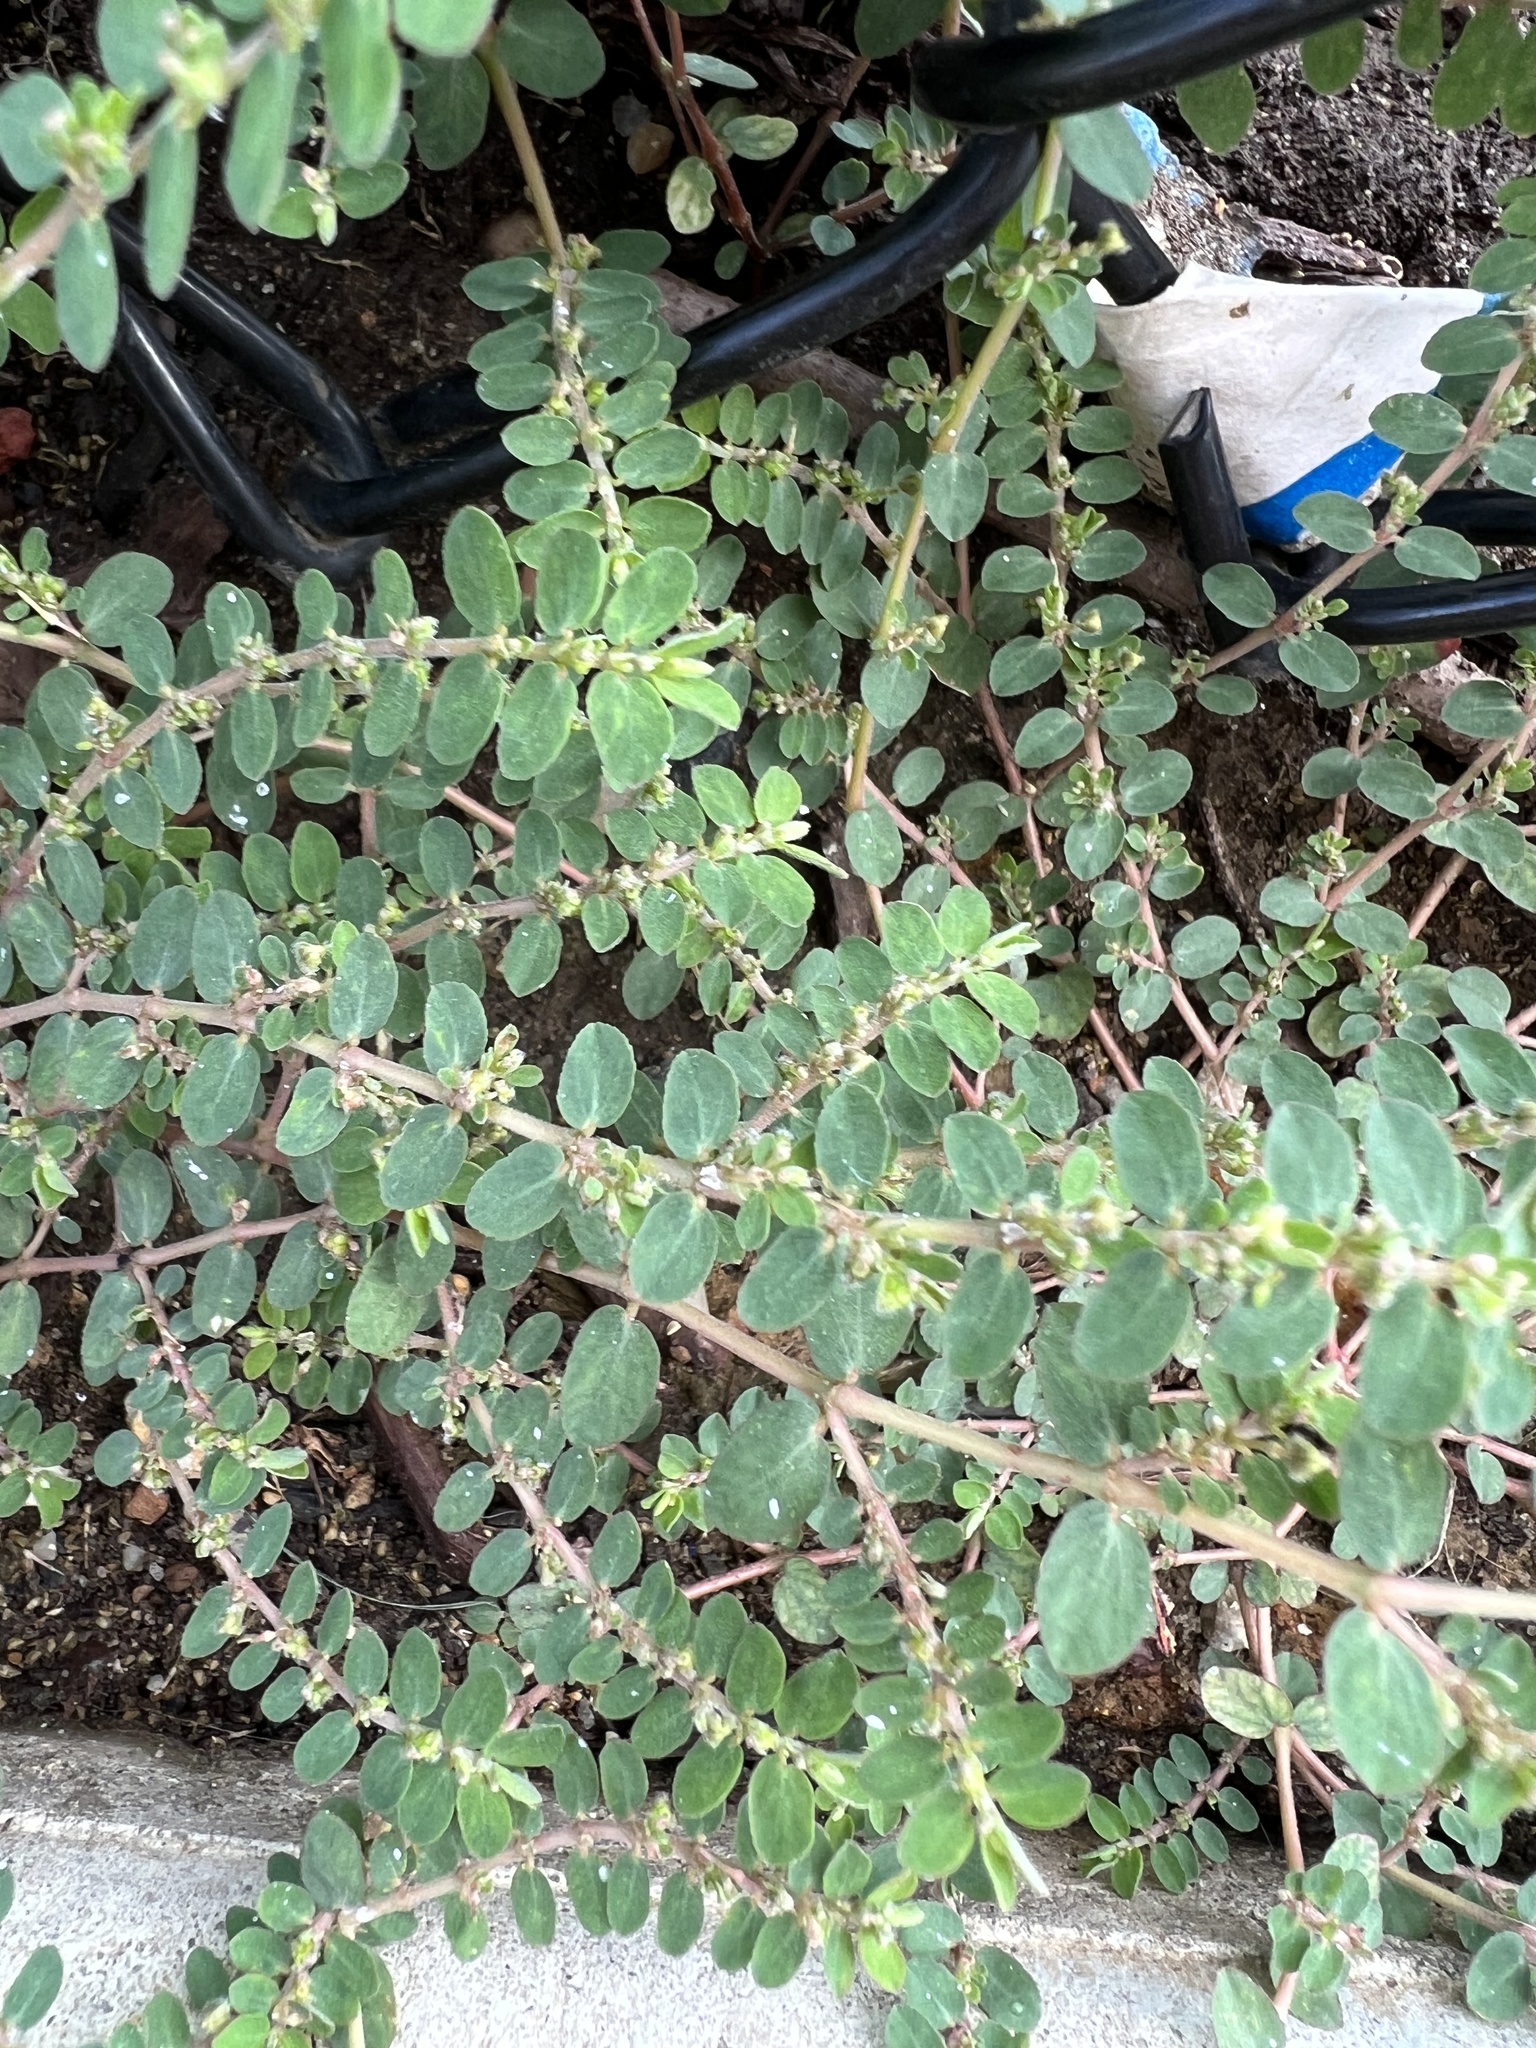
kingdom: Plantae
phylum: Tracheophyta
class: Magnoliopsida
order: Malpighiales
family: Euphorbiaceae
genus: Euphorbia
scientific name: Euphorbia prostrata
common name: Prostrate sandmat
